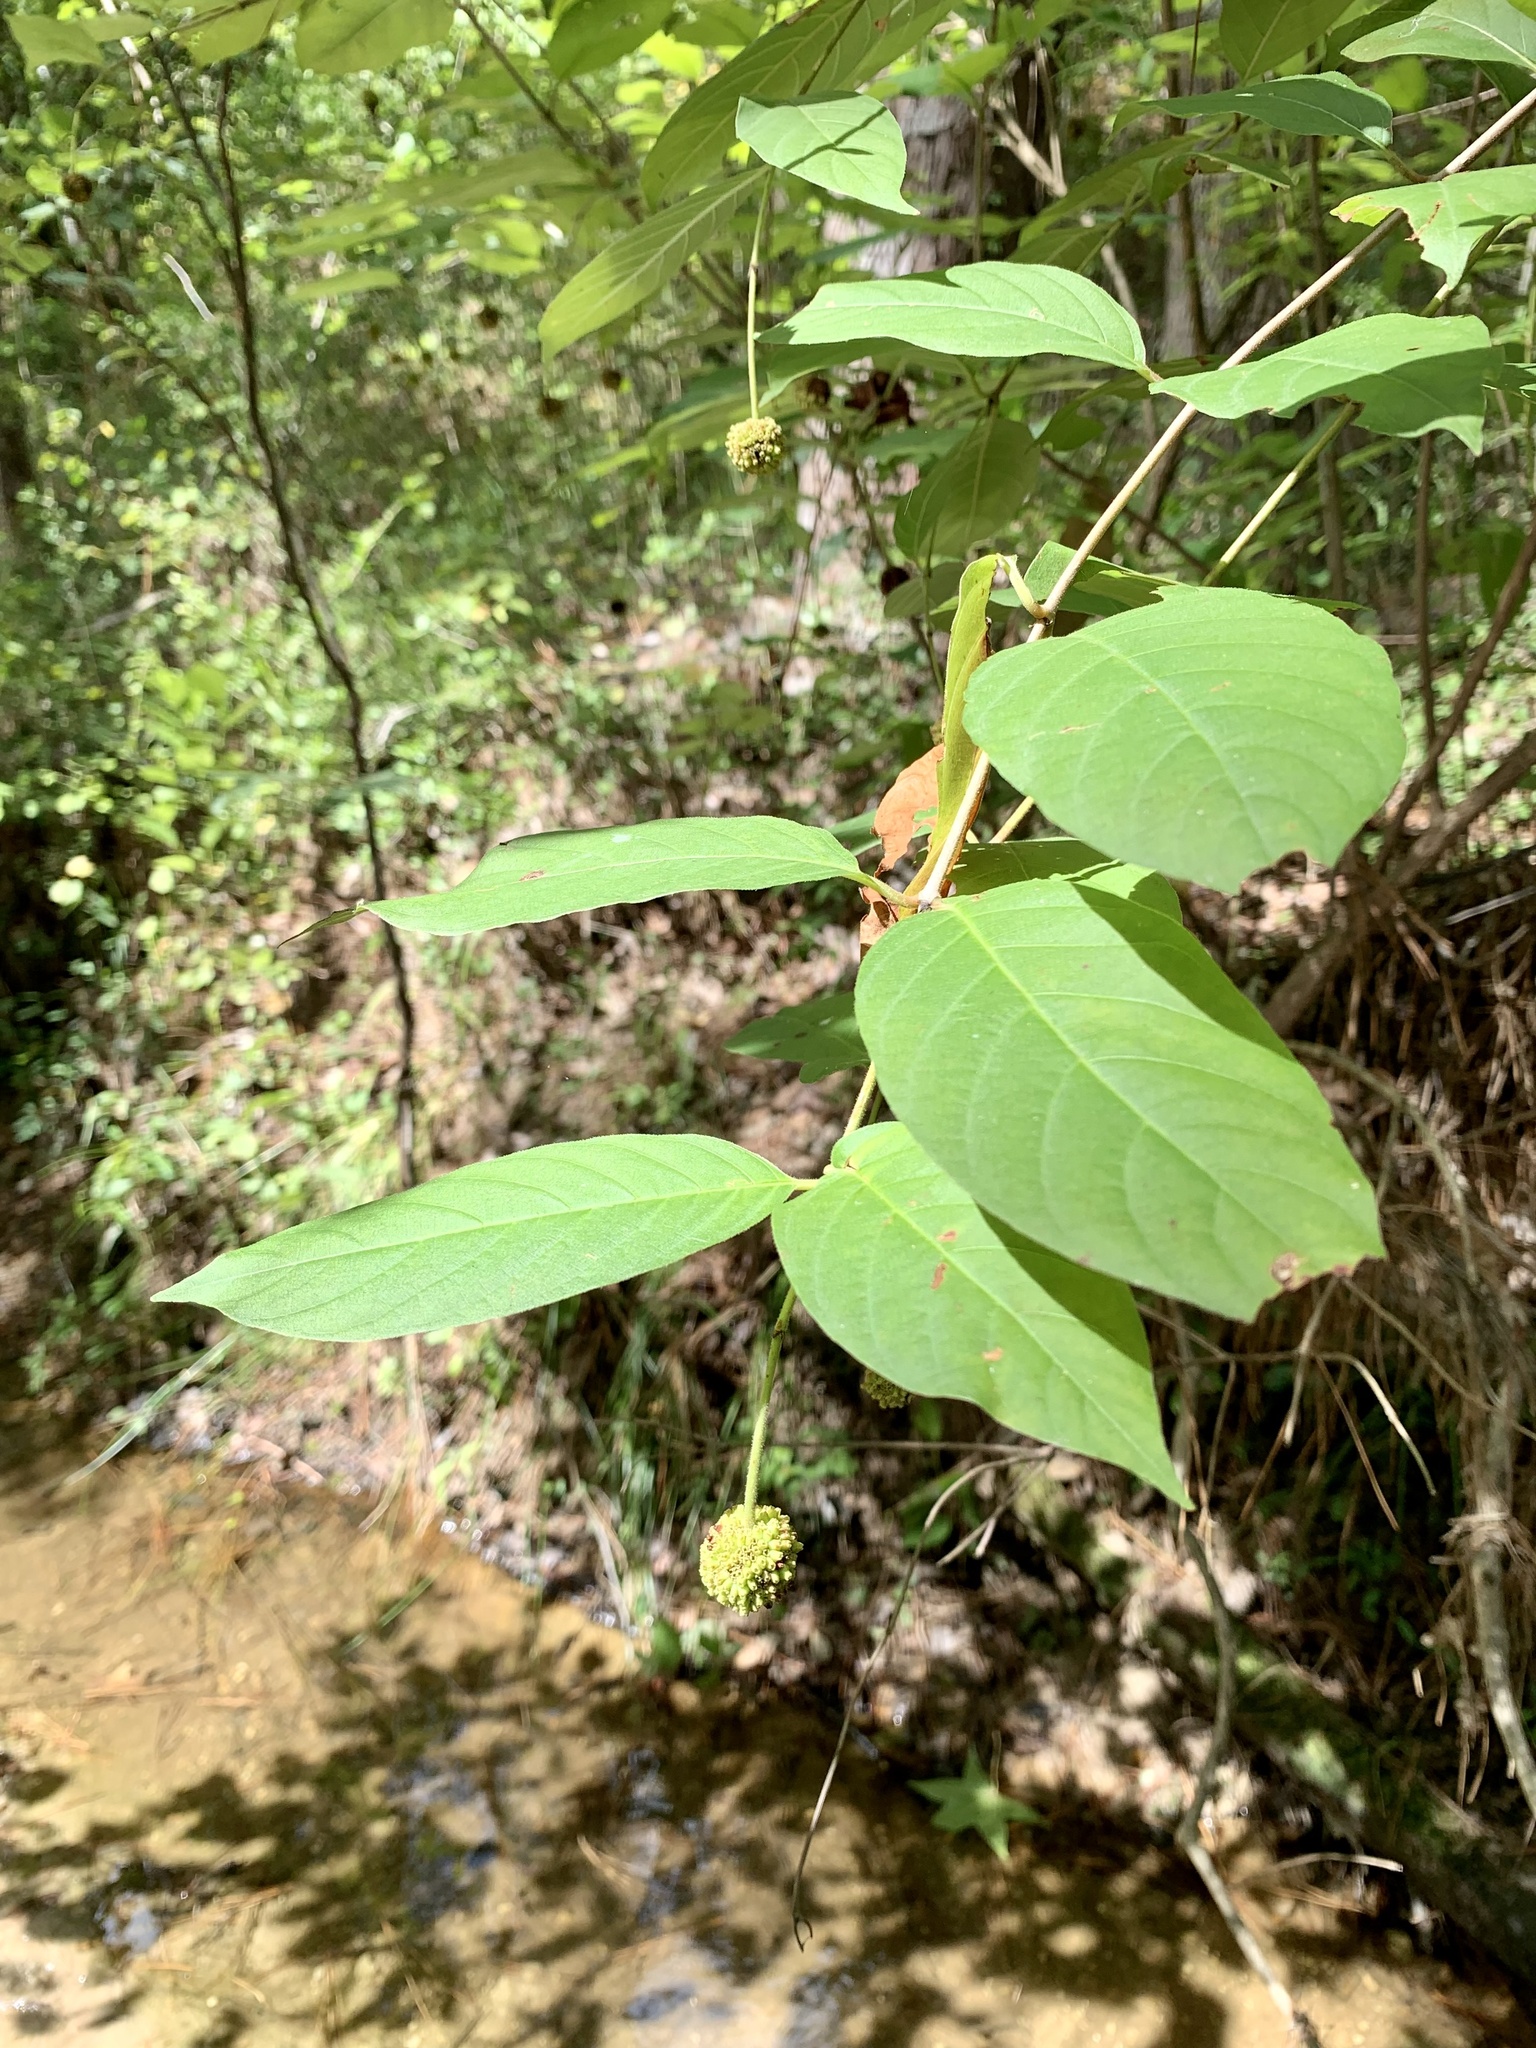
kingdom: Plantae
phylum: Tracheophyta
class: Magnoliopsida
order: Gentianales
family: Rubiaceae
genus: Cephalanthus
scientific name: Cephalanthus occidentalis
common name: Button-willow
